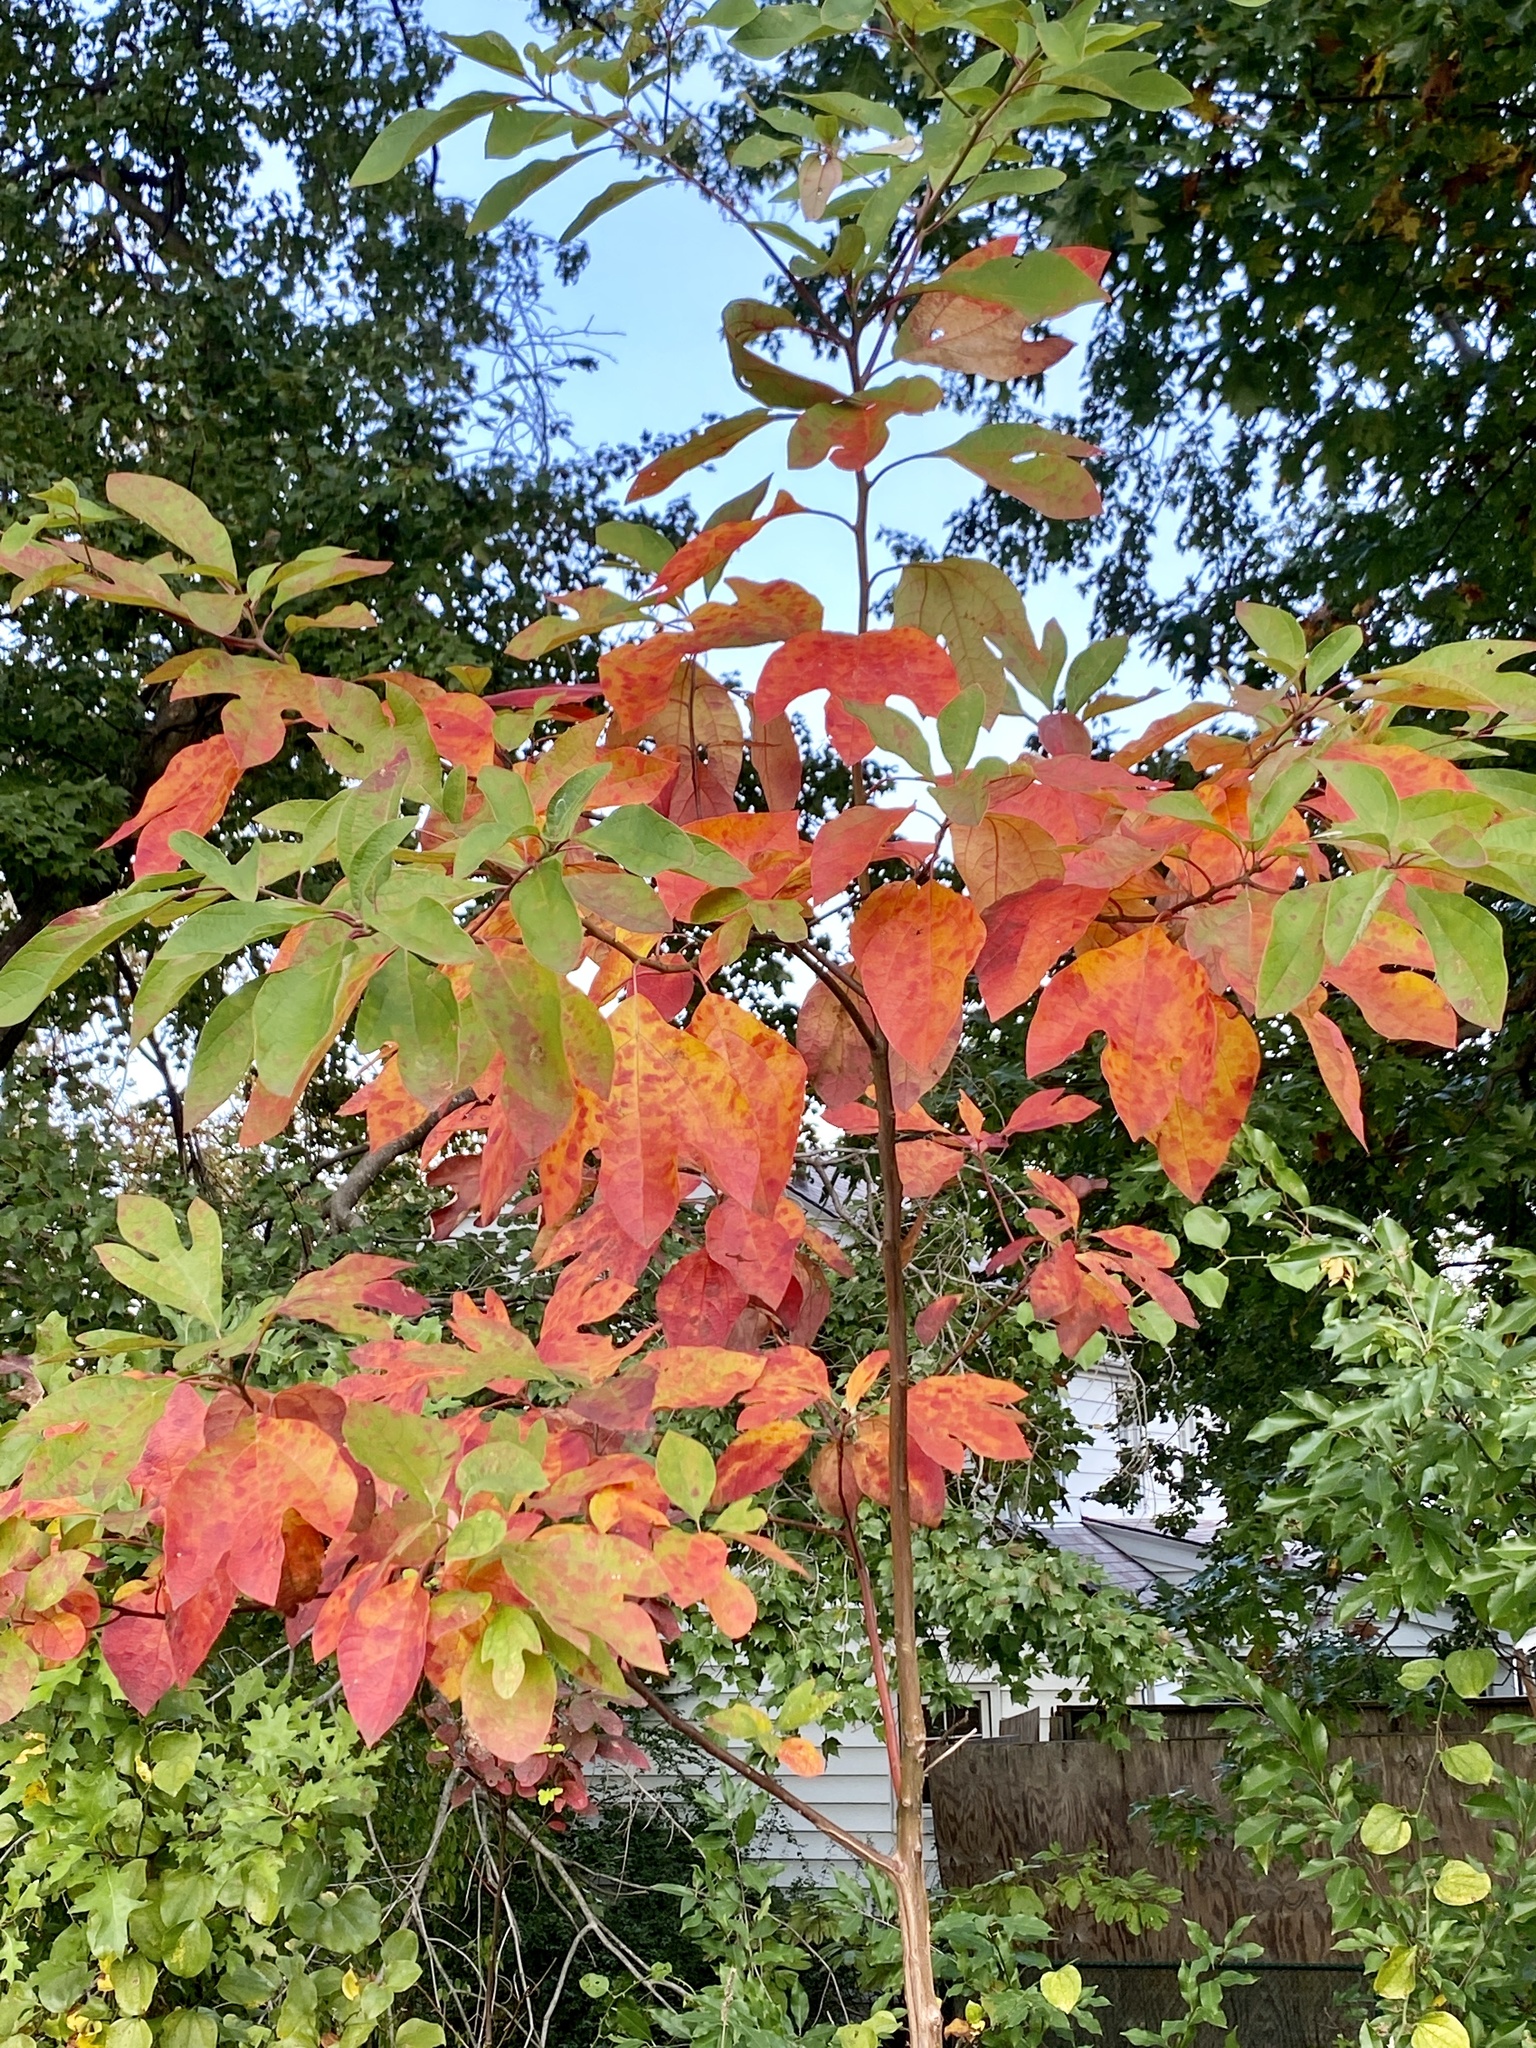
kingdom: Plantae
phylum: Tracheophyta
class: Magnoliopsida
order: Laurales
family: Lauraceae
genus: Sassafras
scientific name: Sassafras albidum
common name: Sassafras
